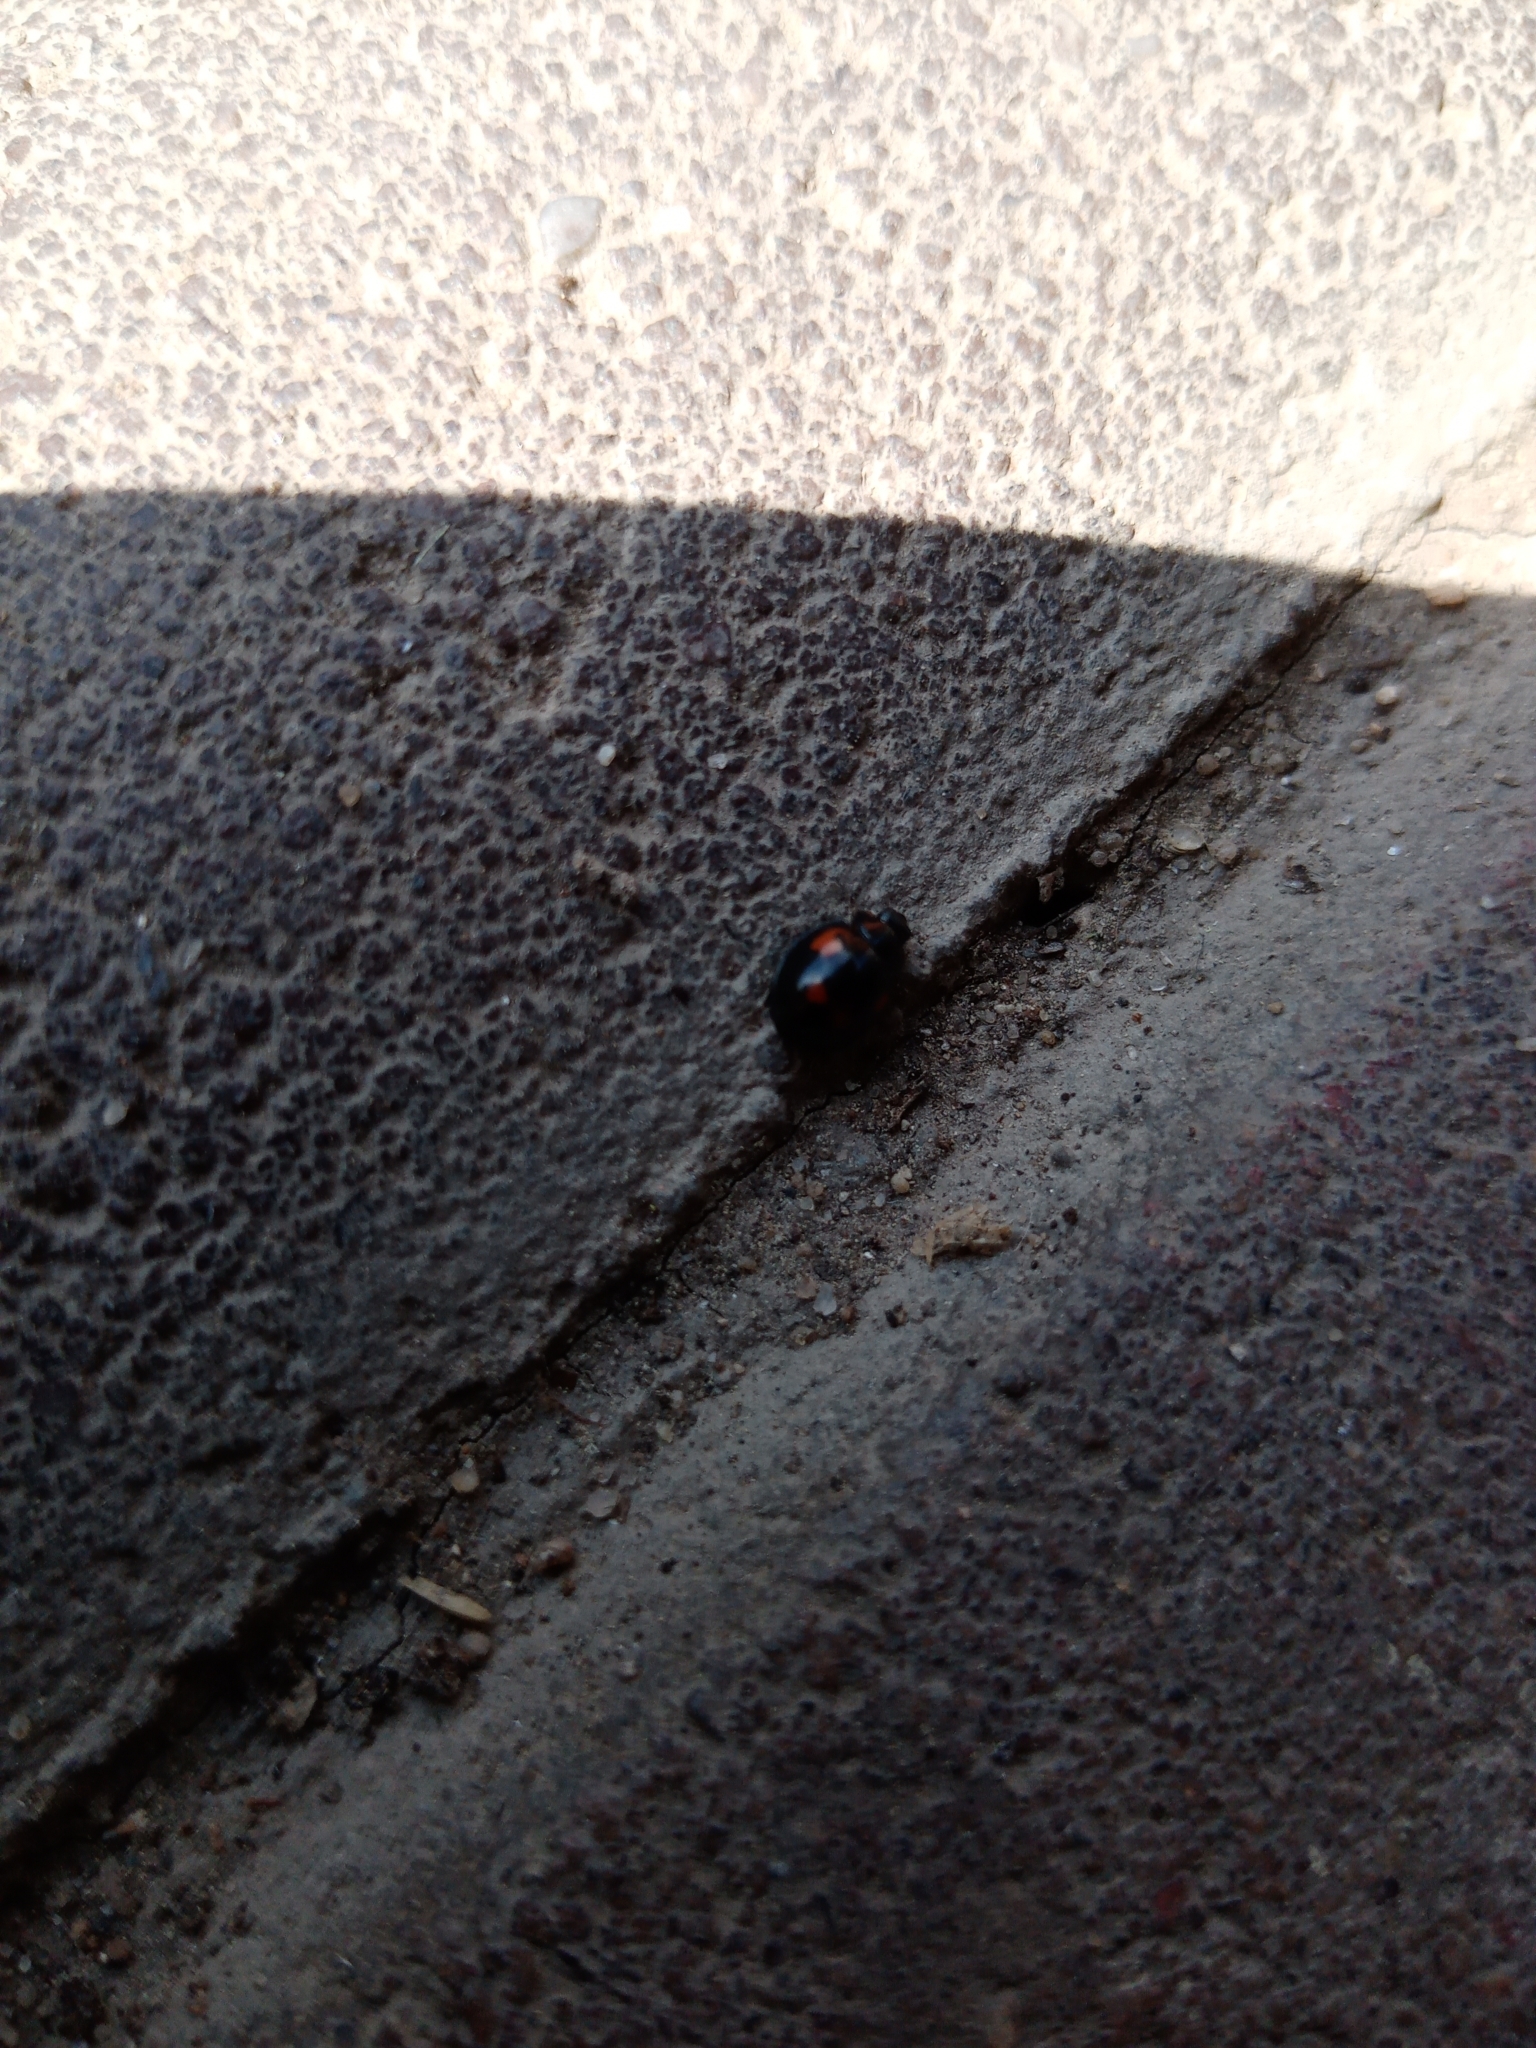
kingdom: Animalia
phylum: Arthropoda
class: Insecta
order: Coleoptera
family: Coccinellidae
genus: Brumus
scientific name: Brumus quadripustulatus
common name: Ladybird beetle
